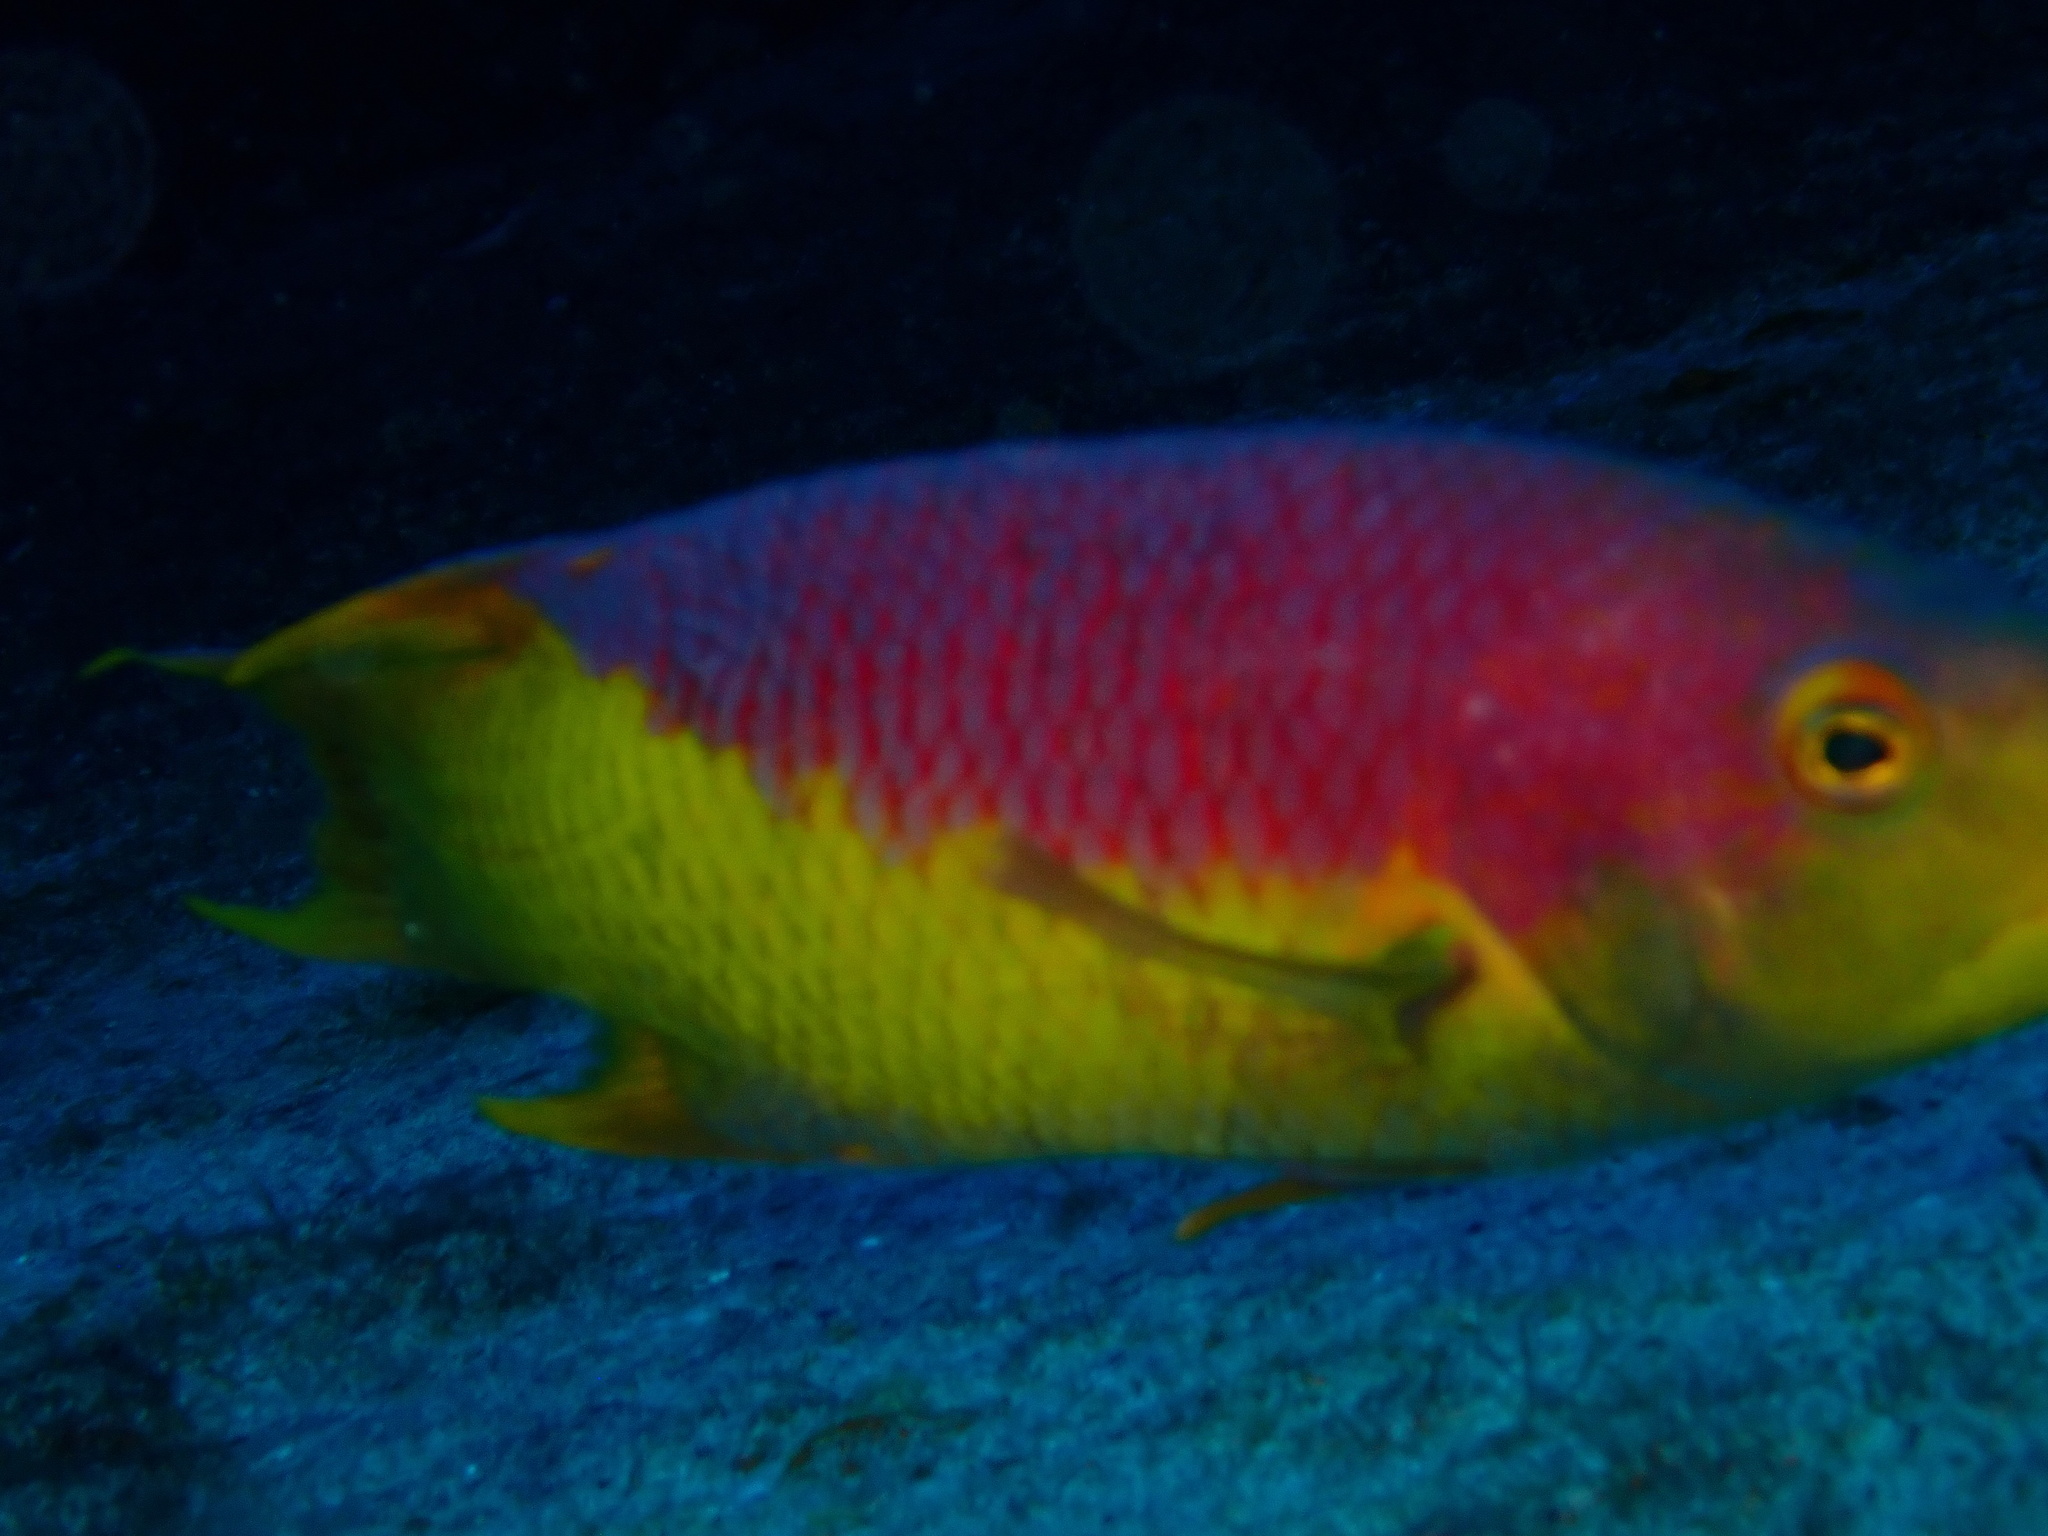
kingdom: Animalia
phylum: Chordata
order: Perciformes
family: Labridae
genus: Bodianus
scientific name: Bodianus rufus
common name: Spanish hogfish
